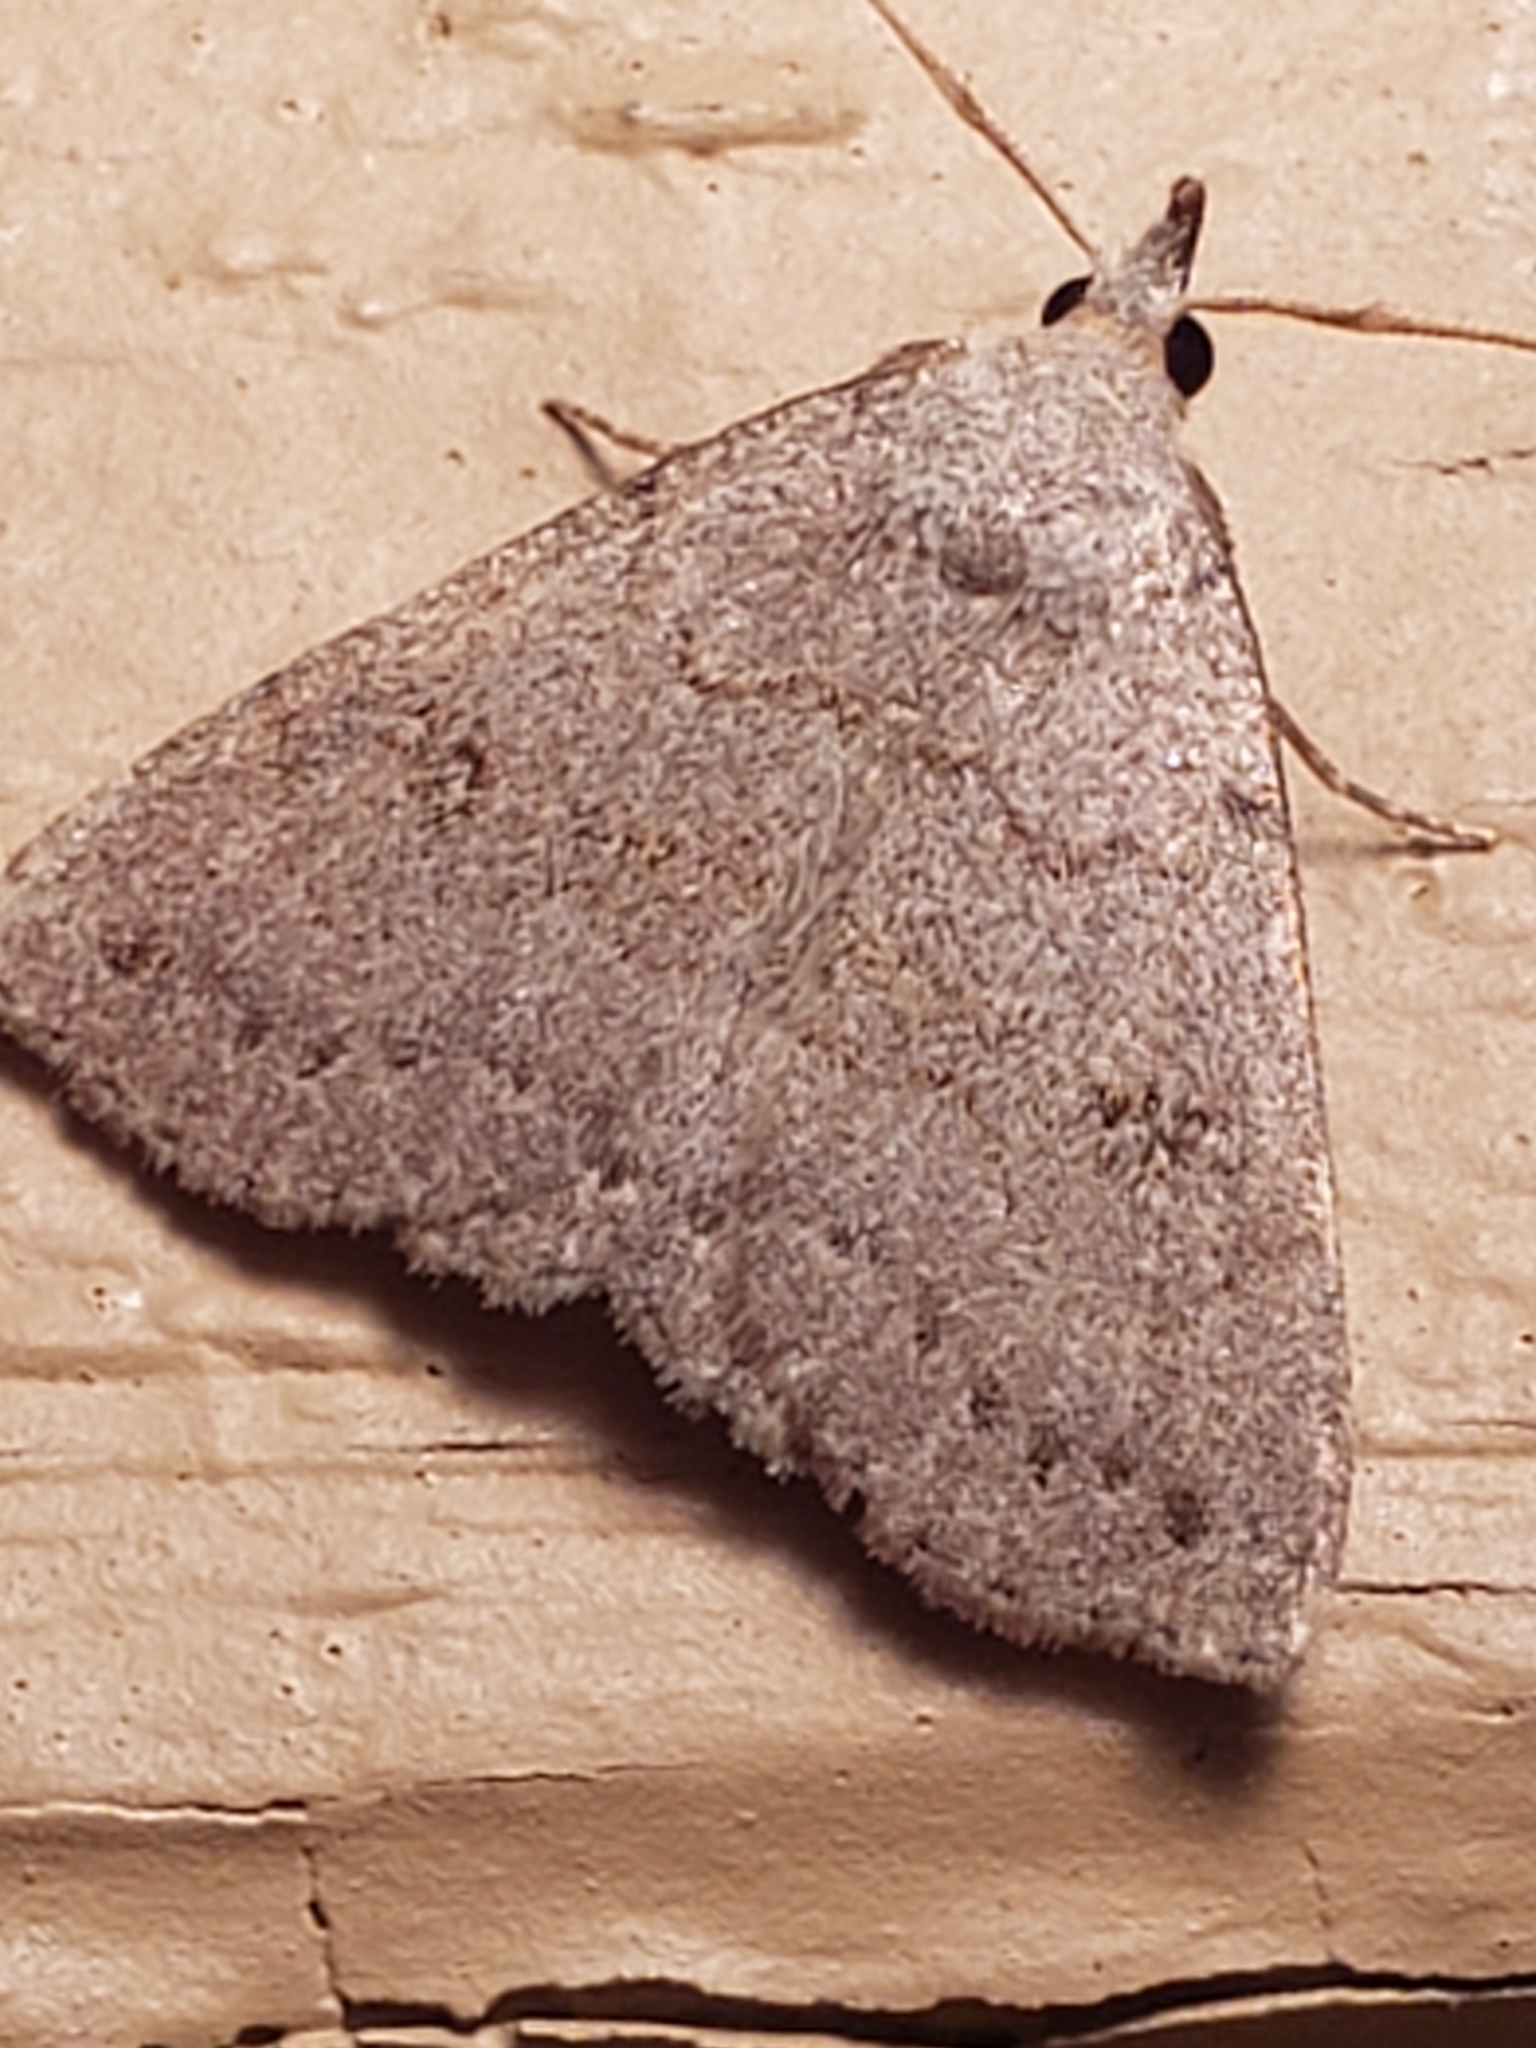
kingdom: Animalia
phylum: Arthropoda
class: Insecta
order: Lepidoptera
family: Erebidae
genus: Macrochilo
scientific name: Macrochilo morbidalis
